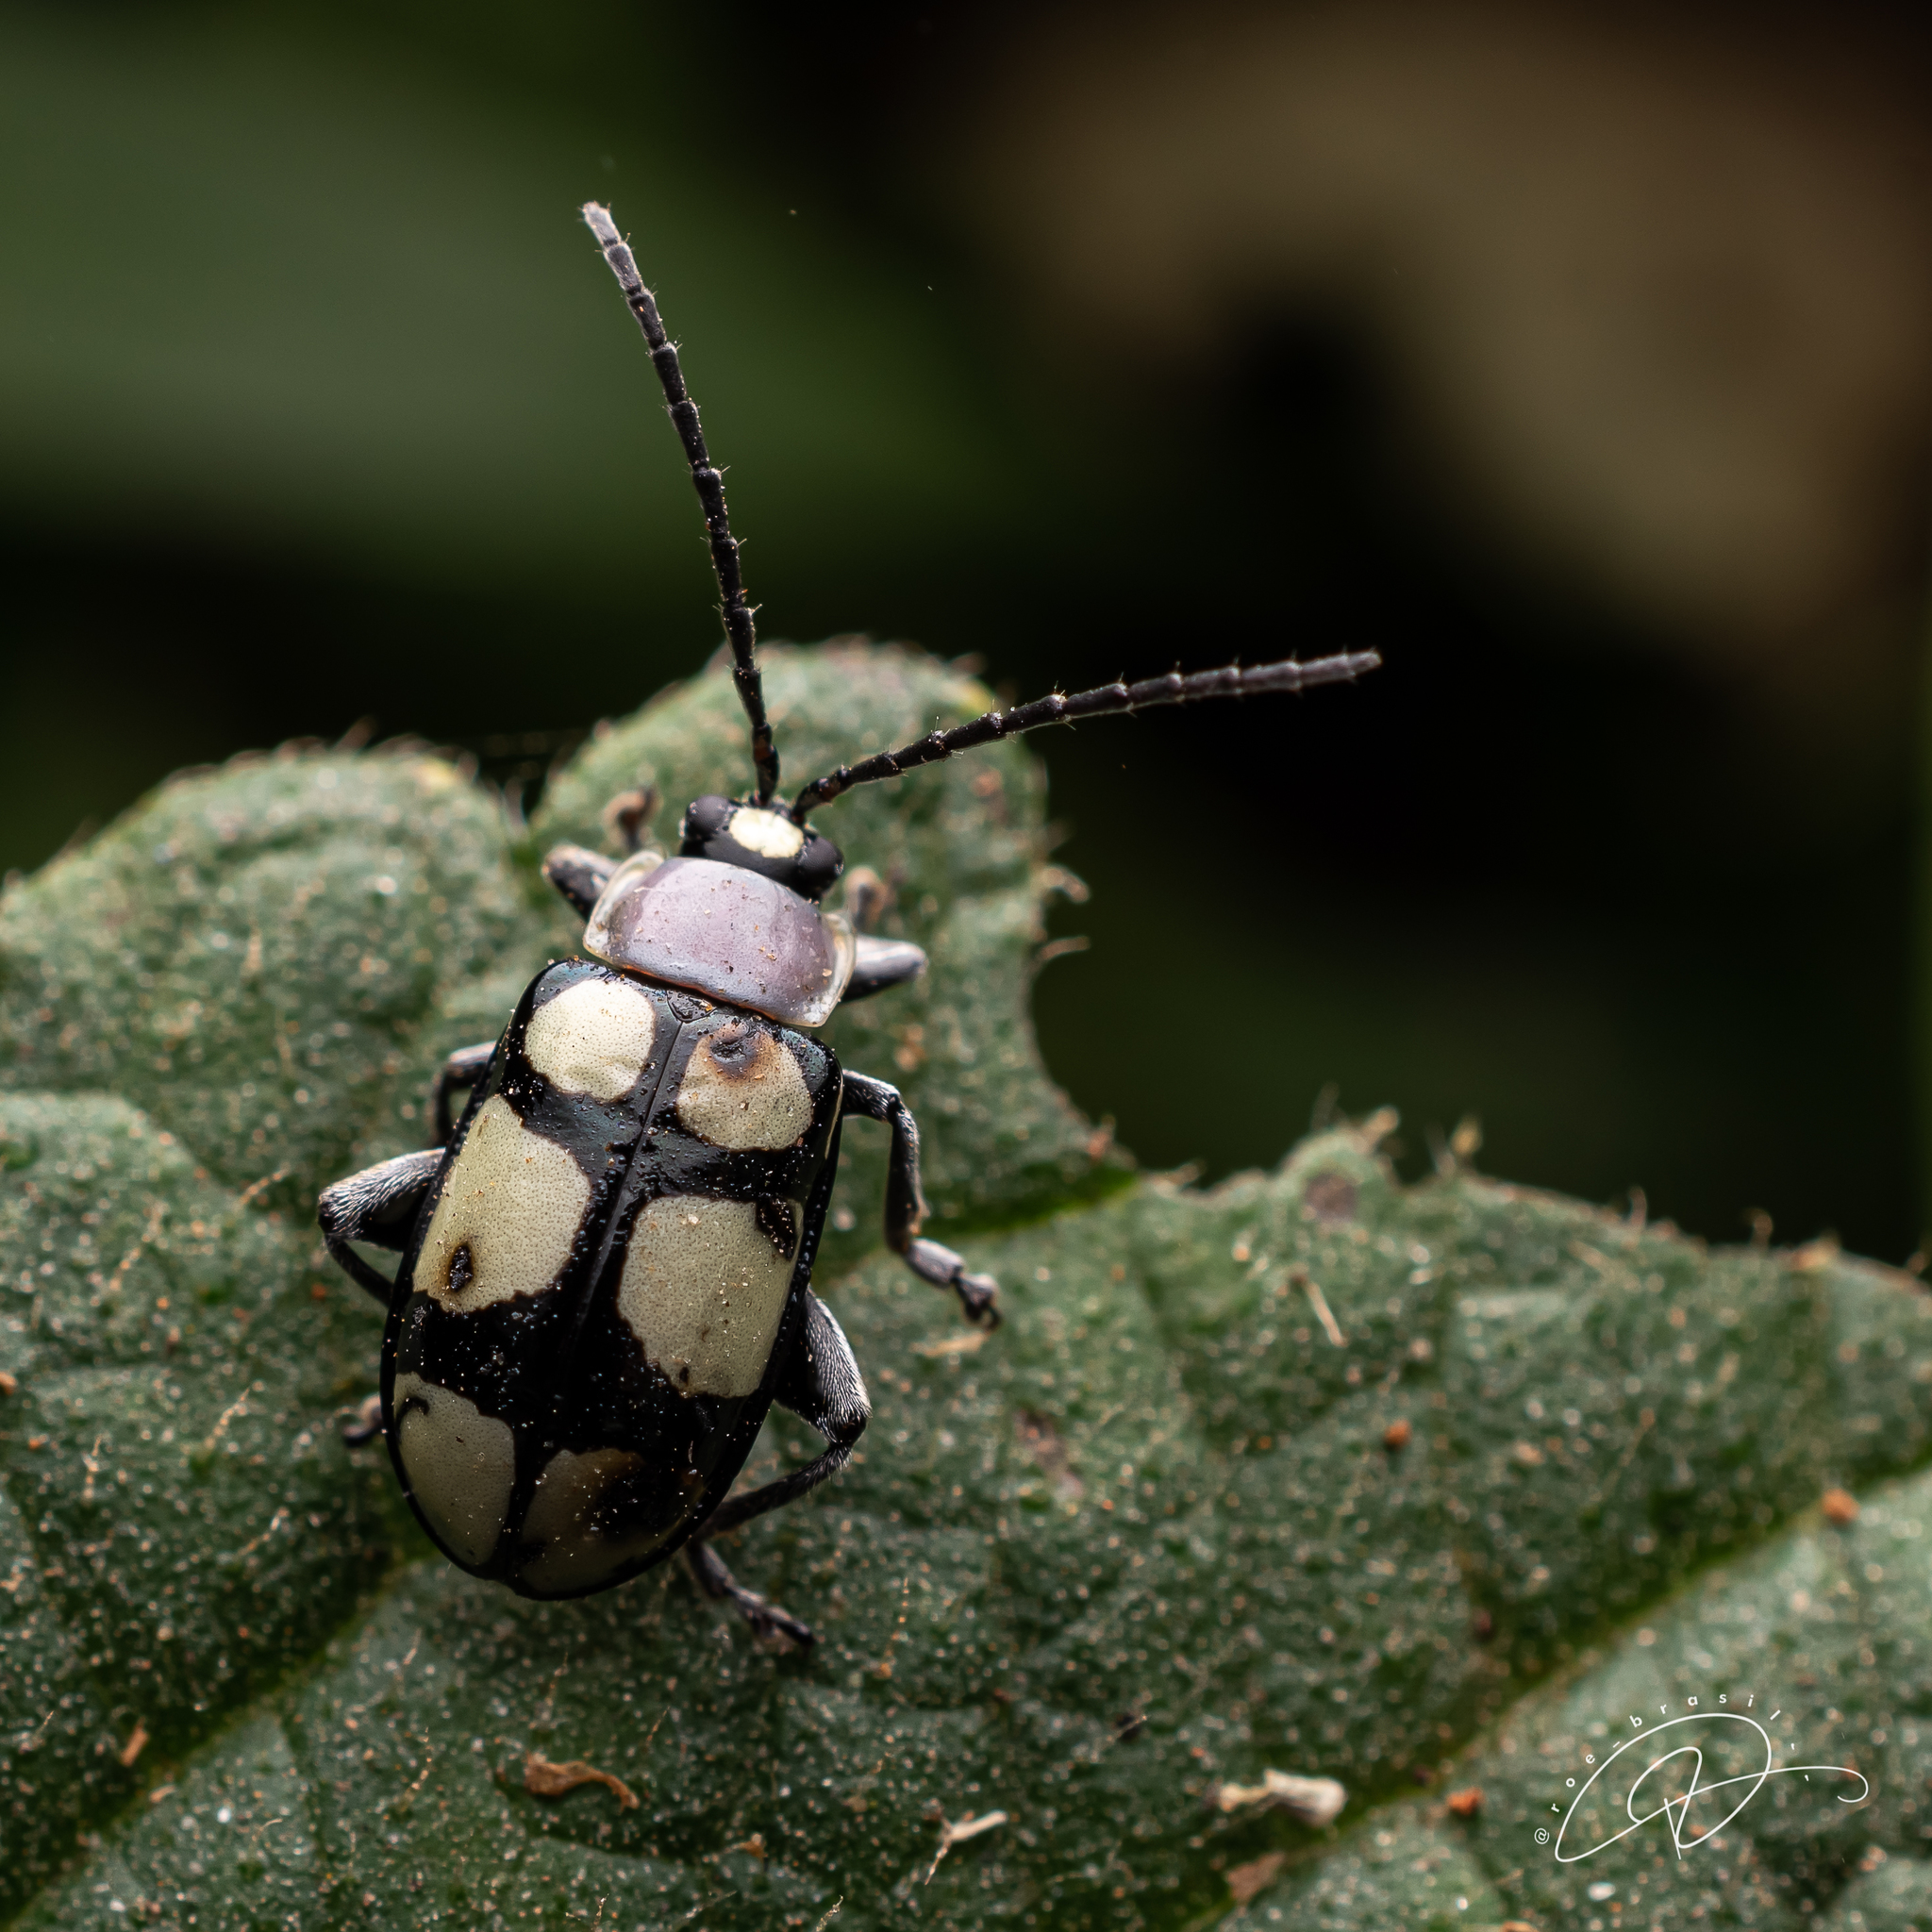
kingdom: Animalia
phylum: Arthropoda
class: Insecta
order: Coleoptera
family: Chrysomelidae
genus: Omophoita
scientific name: Omophoita
